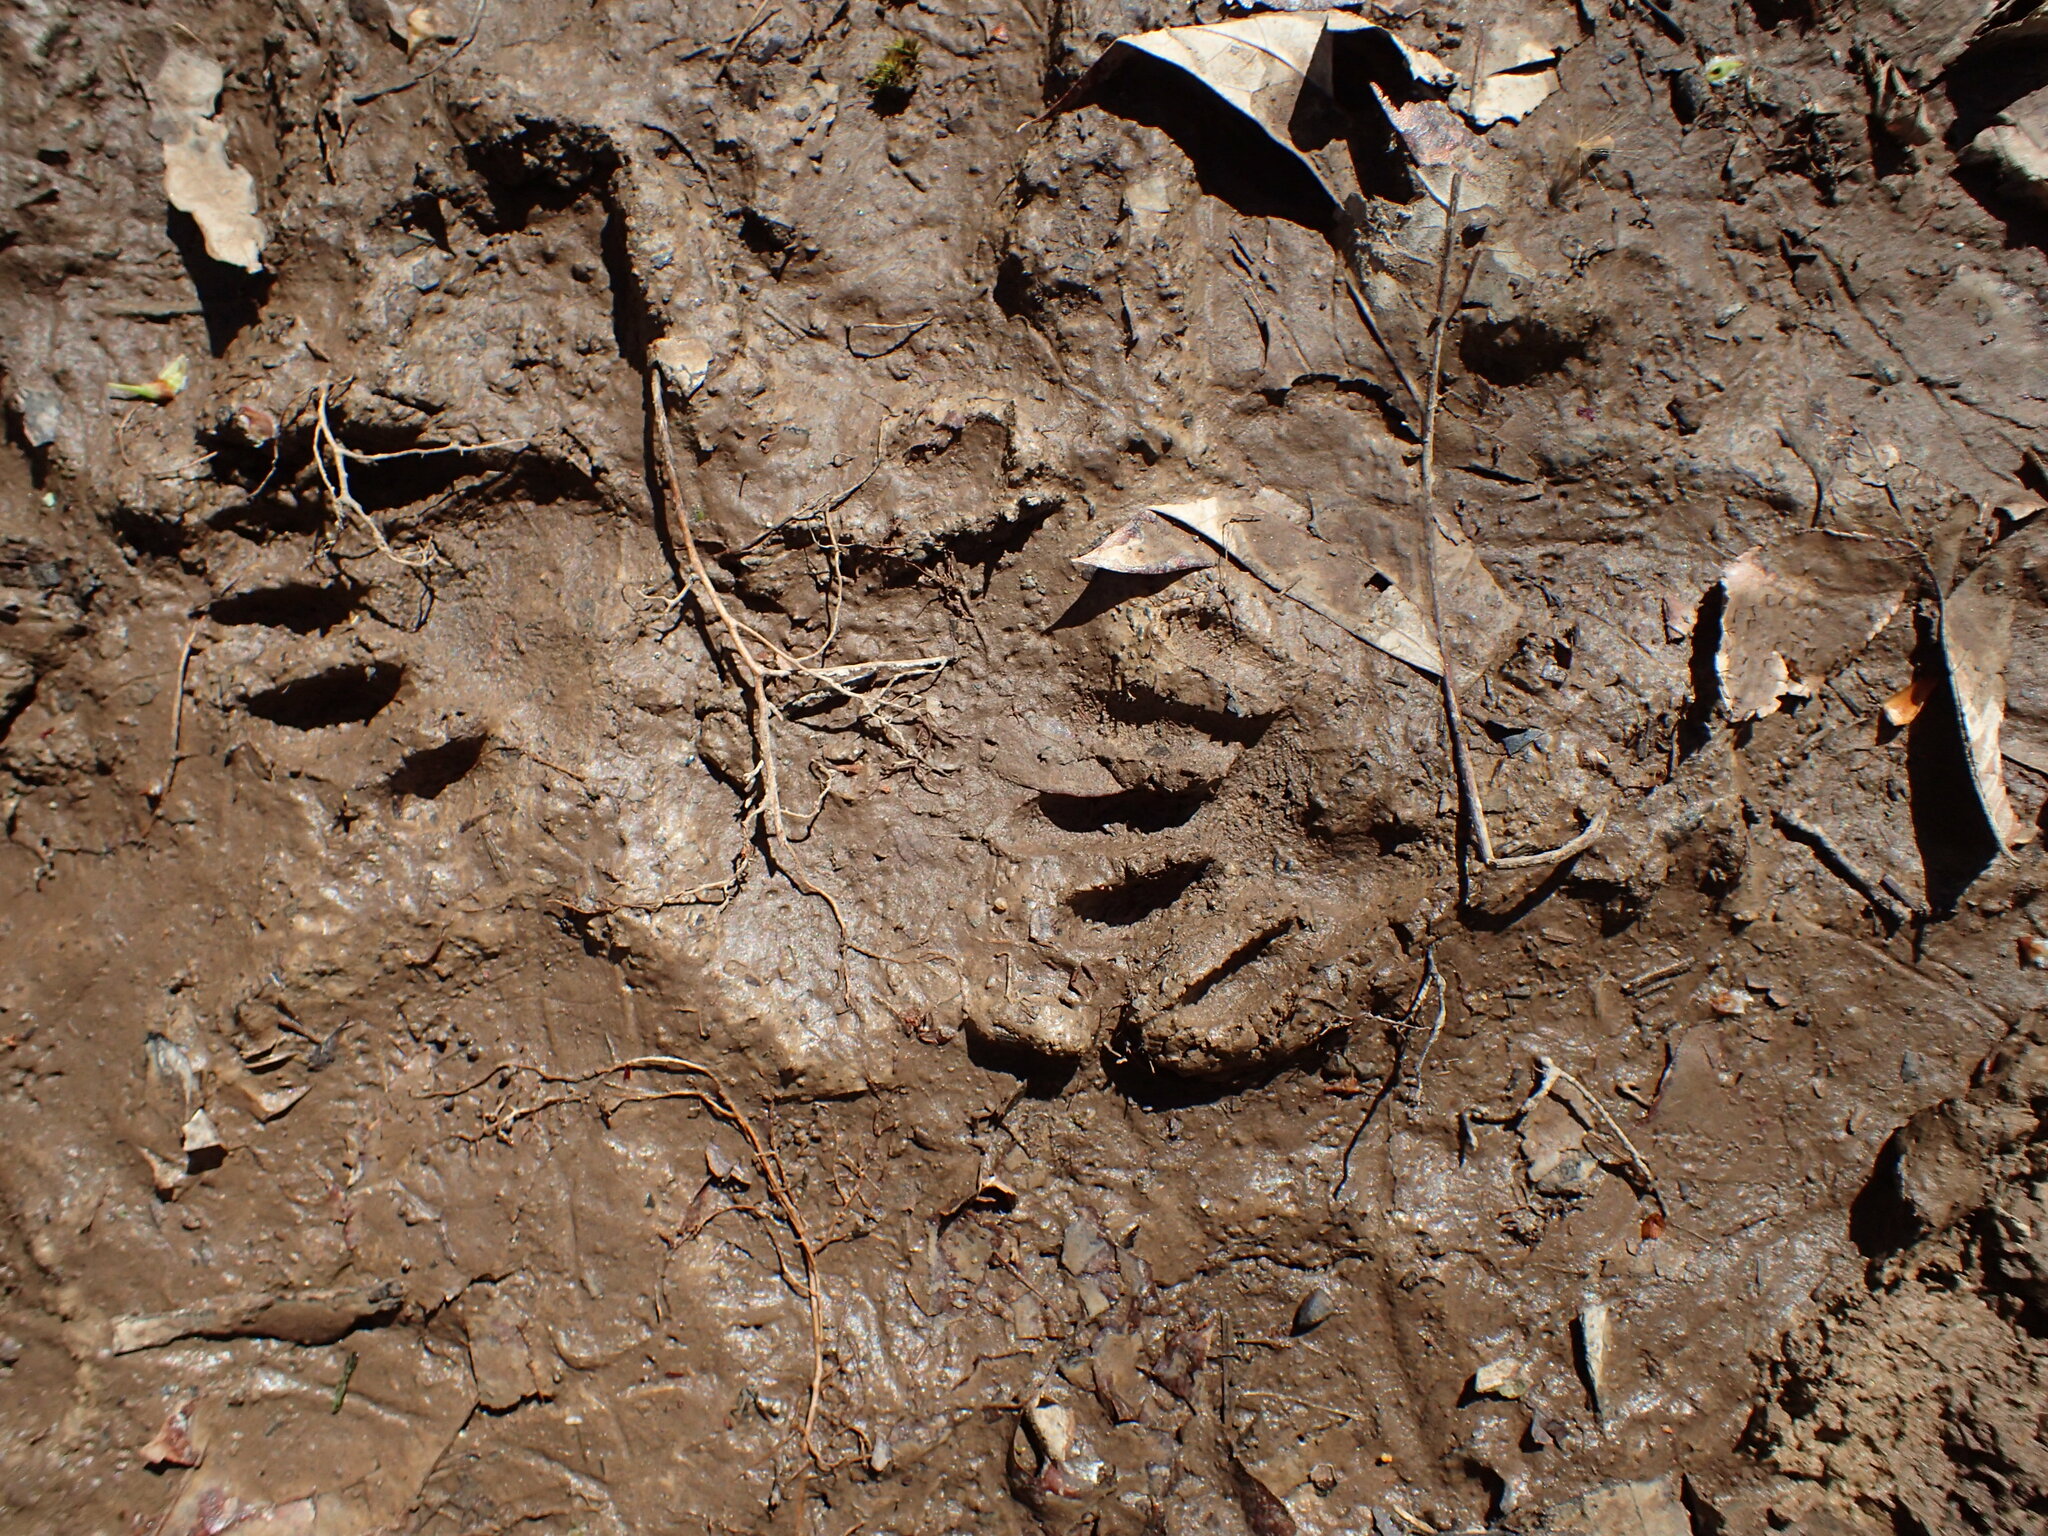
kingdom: Animalia
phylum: Chordata
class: Mammalia
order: Carnivora
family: Procyonidae
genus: Procyon
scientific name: Procyon lotor
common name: Raccoon
